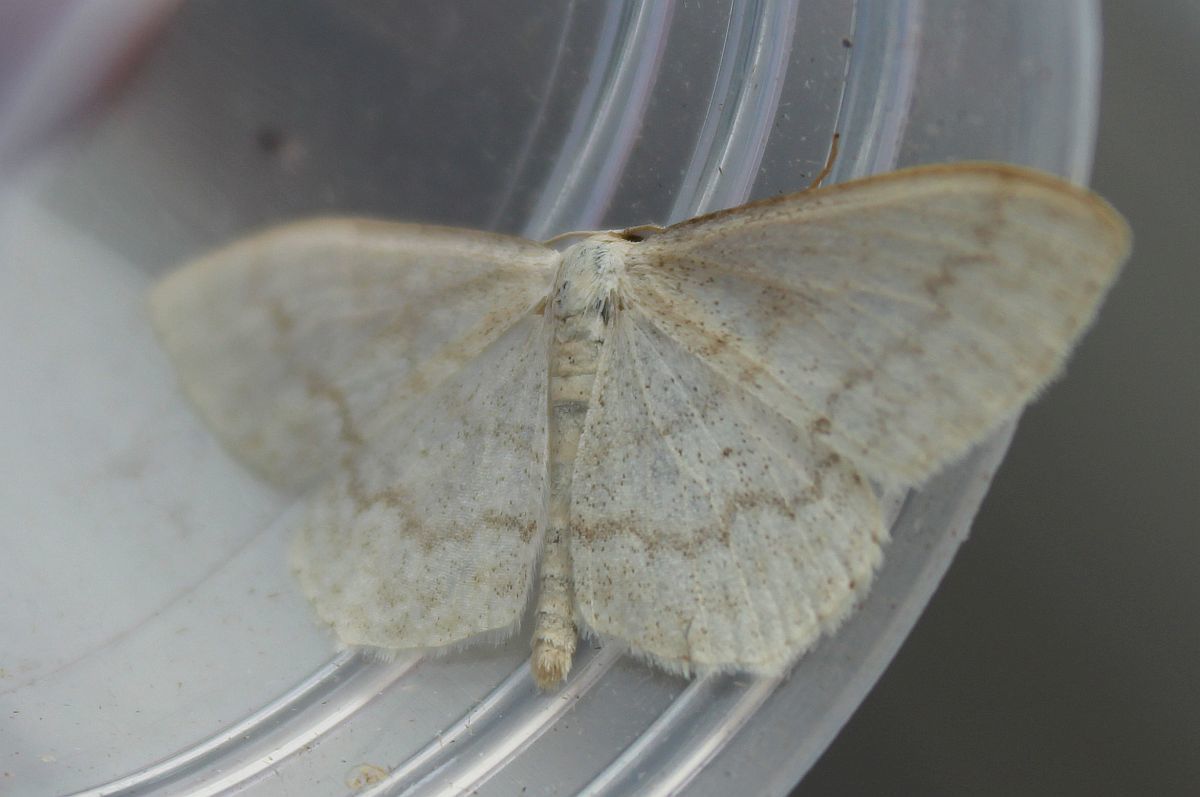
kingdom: Animalia
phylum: Arthropoda
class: Insecta
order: Lepidoptera
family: Geometridae
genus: Scopula
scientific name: Scopula floslactata
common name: Cream wave
